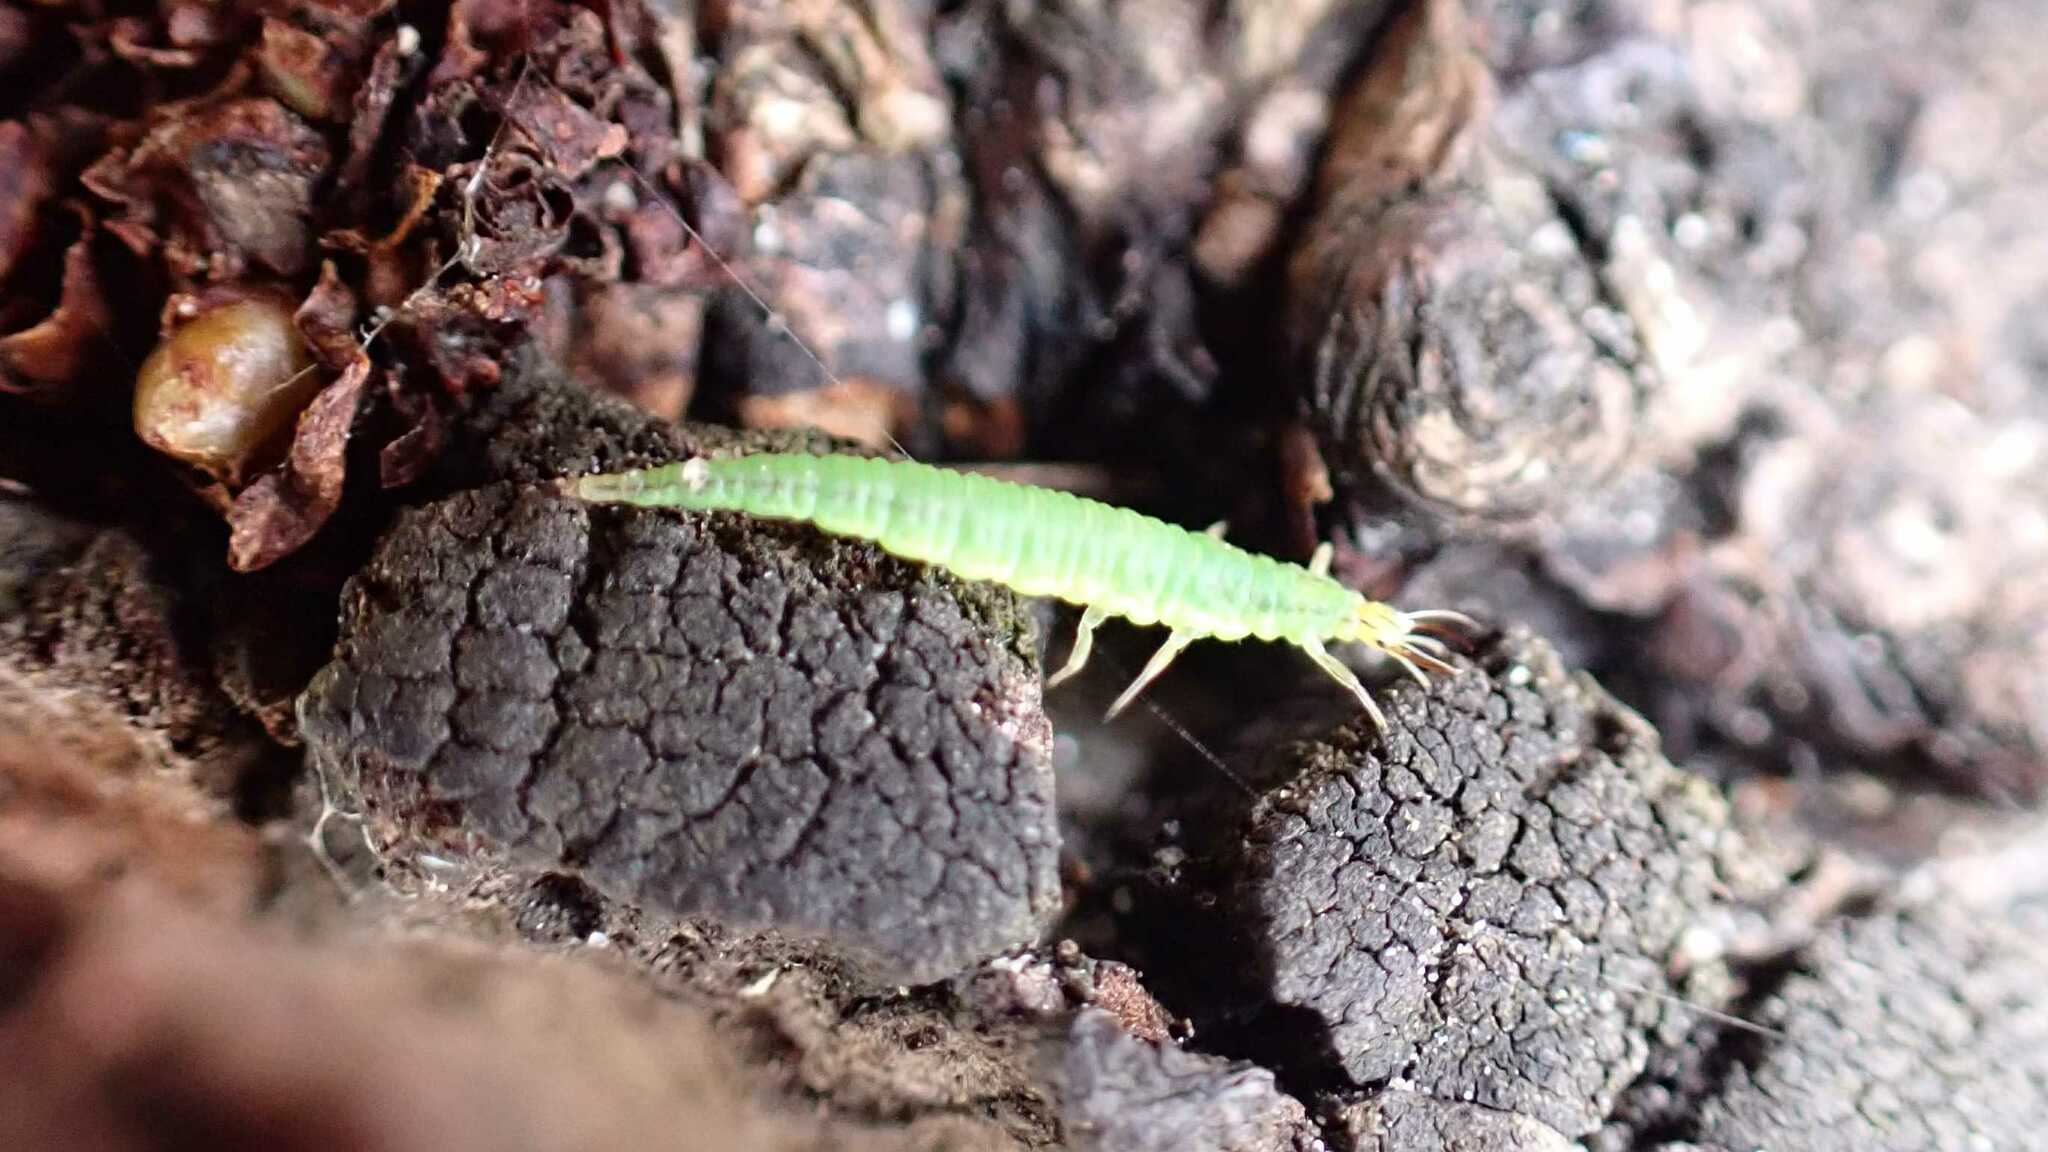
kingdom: Animalia
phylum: Arthropoda
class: Insecta
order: Neuroptera
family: Chrysopidae
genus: Hypochrysa
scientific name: Hypochrysa elegans
